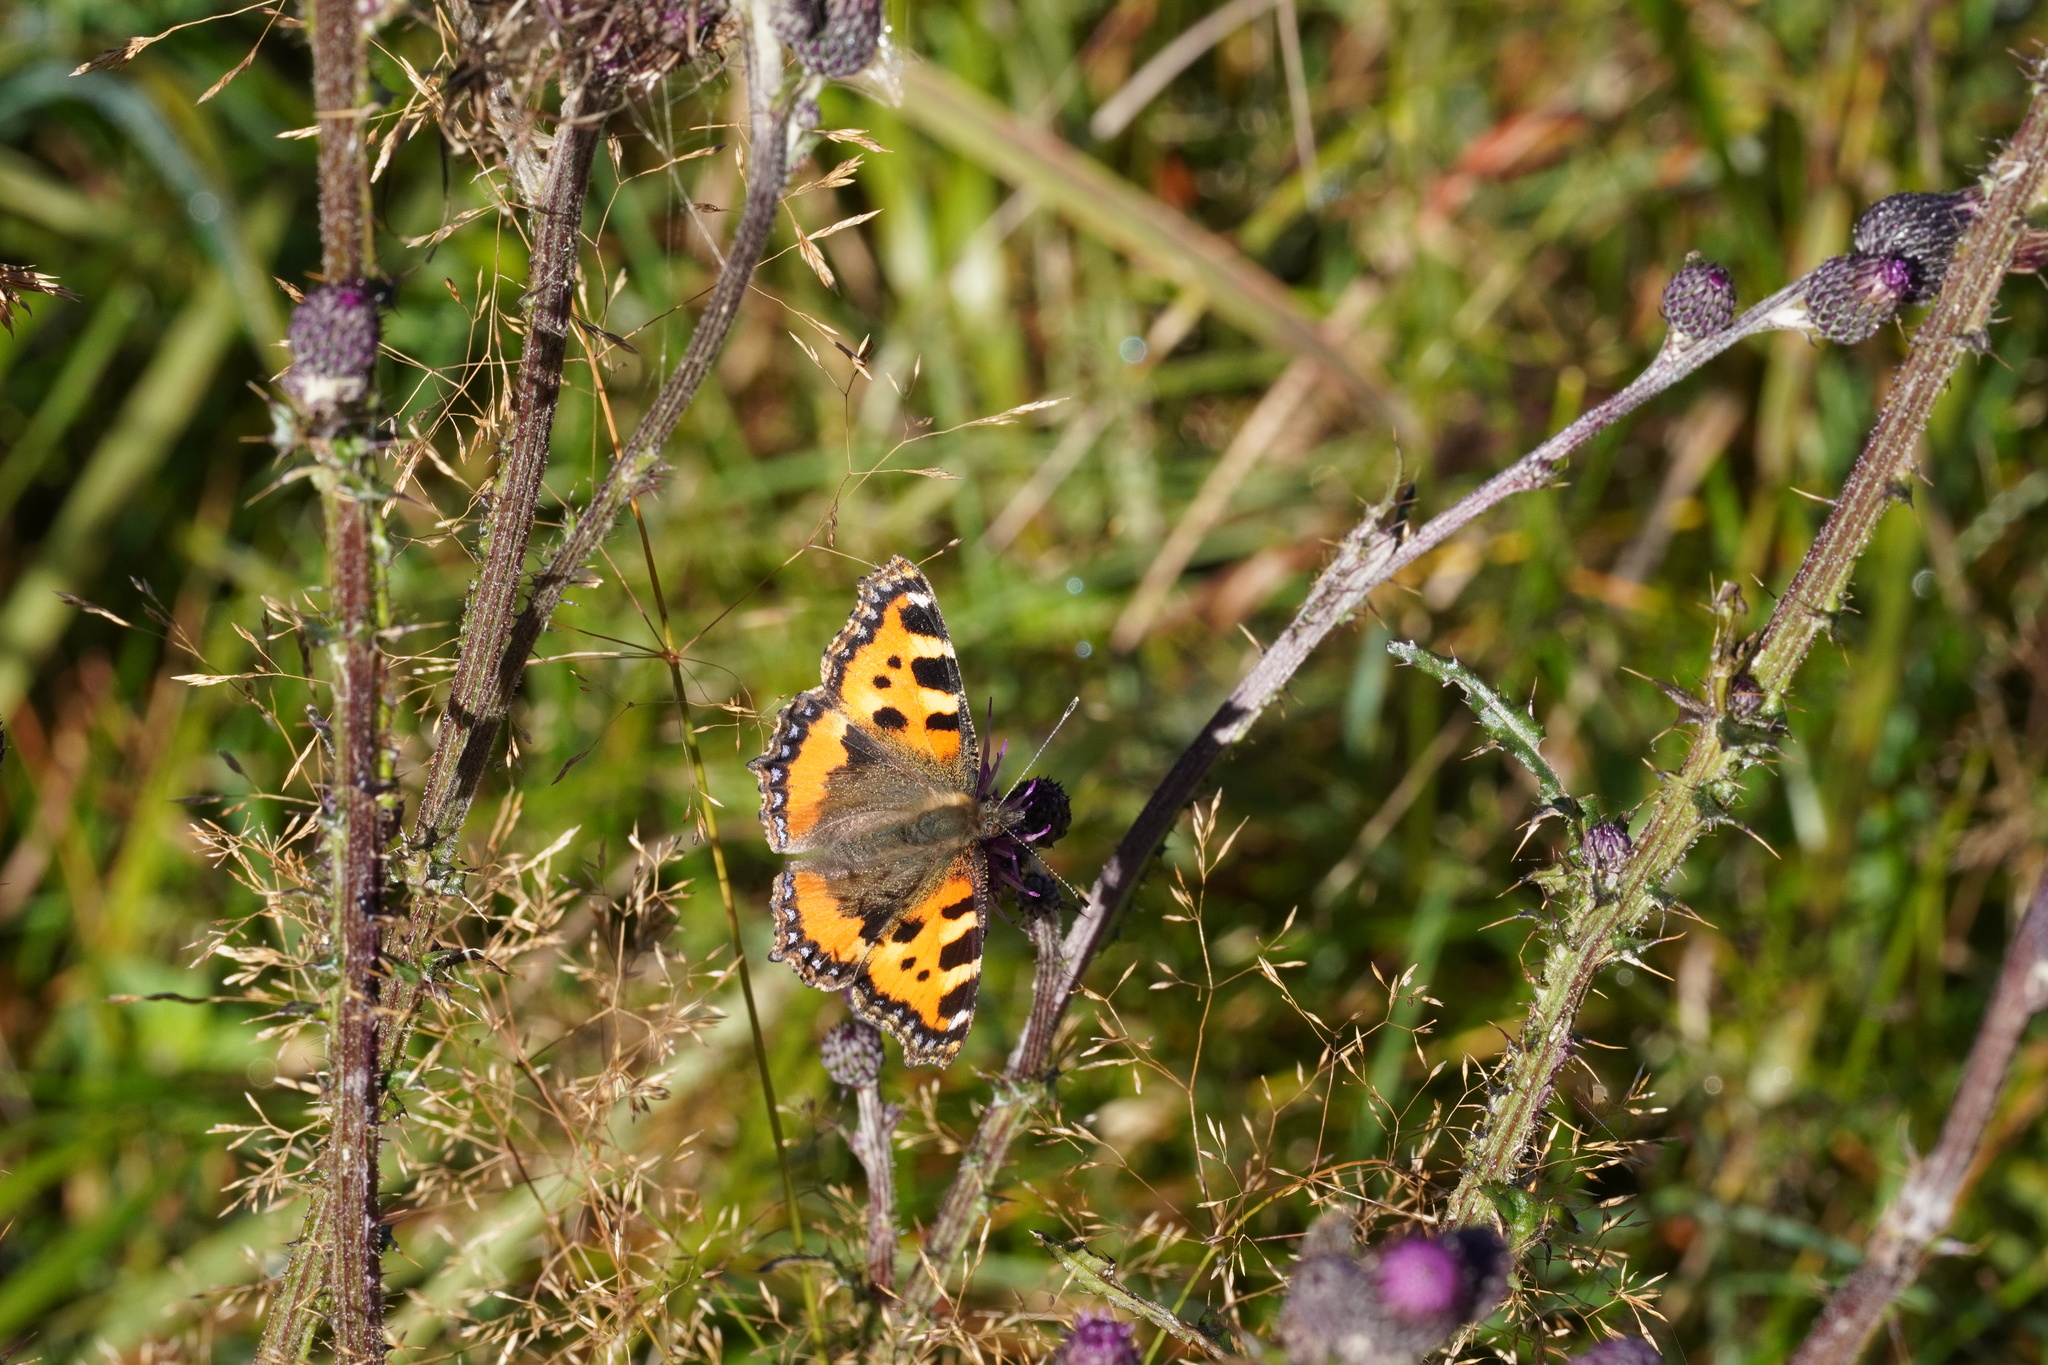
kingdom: Animalia
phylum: Arthropoda
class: Insecta
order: Lepidoptera
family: Nymphalidae
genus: Aglais
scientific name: Aglais urticae
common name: Small tortoiseshell
